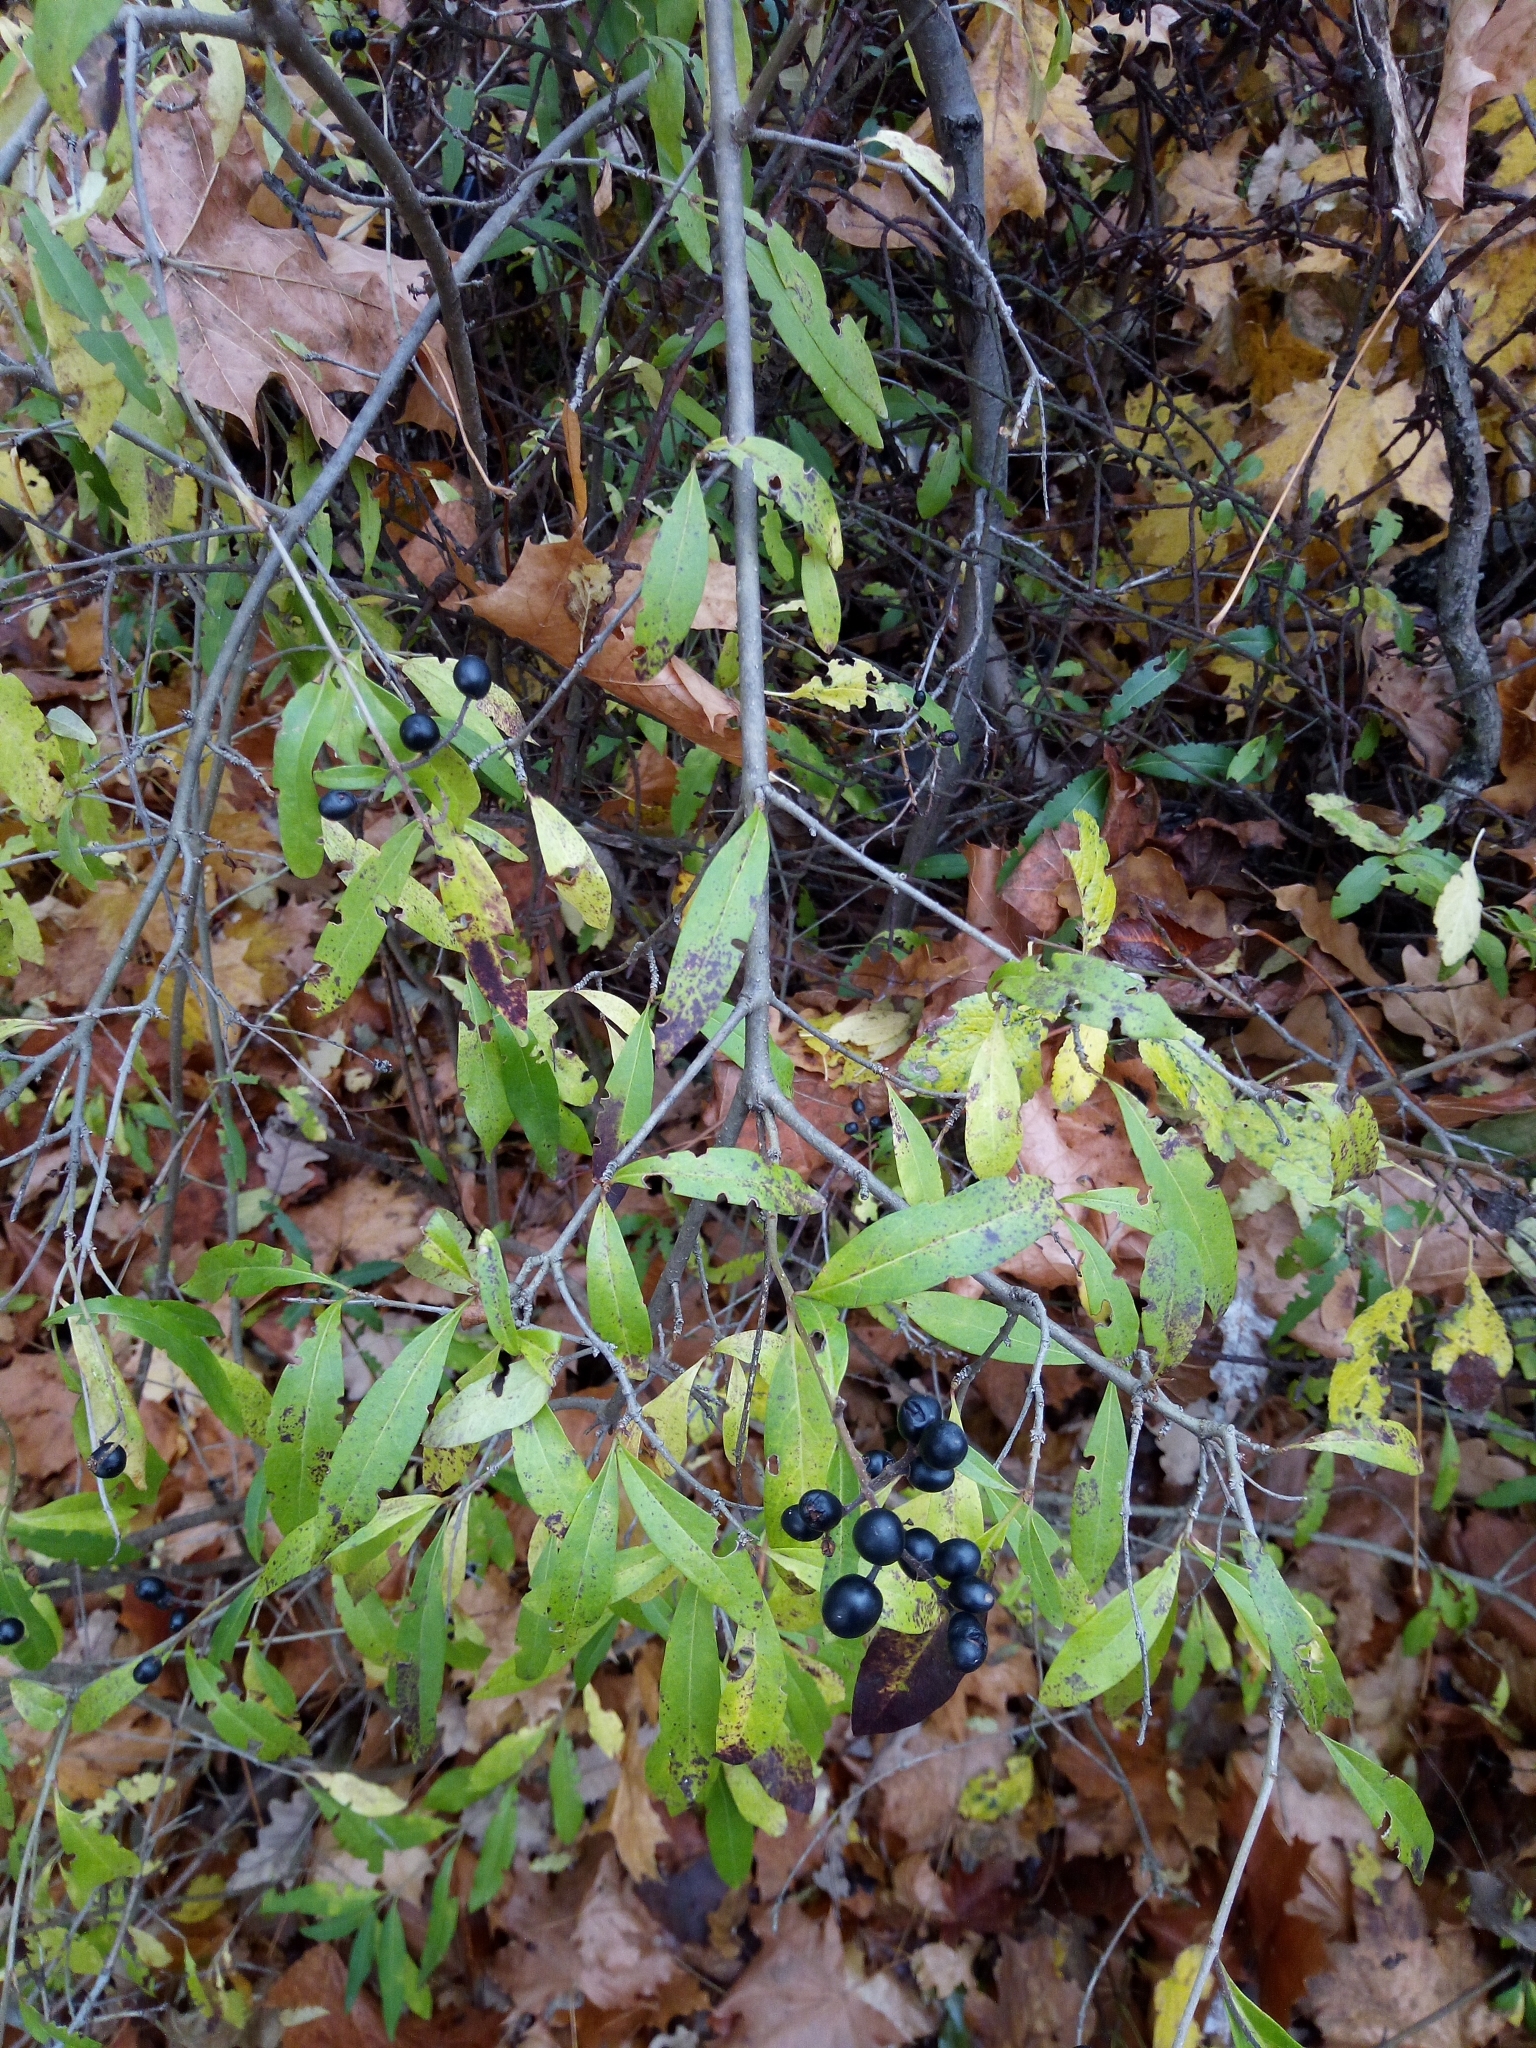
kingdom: Plantae
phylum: Tracheophyta
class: Magnoliopsida
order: Lamiales
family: Oleaceae
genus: Ligustrum
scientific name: Ligustrum vulgare
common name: Wild privet
